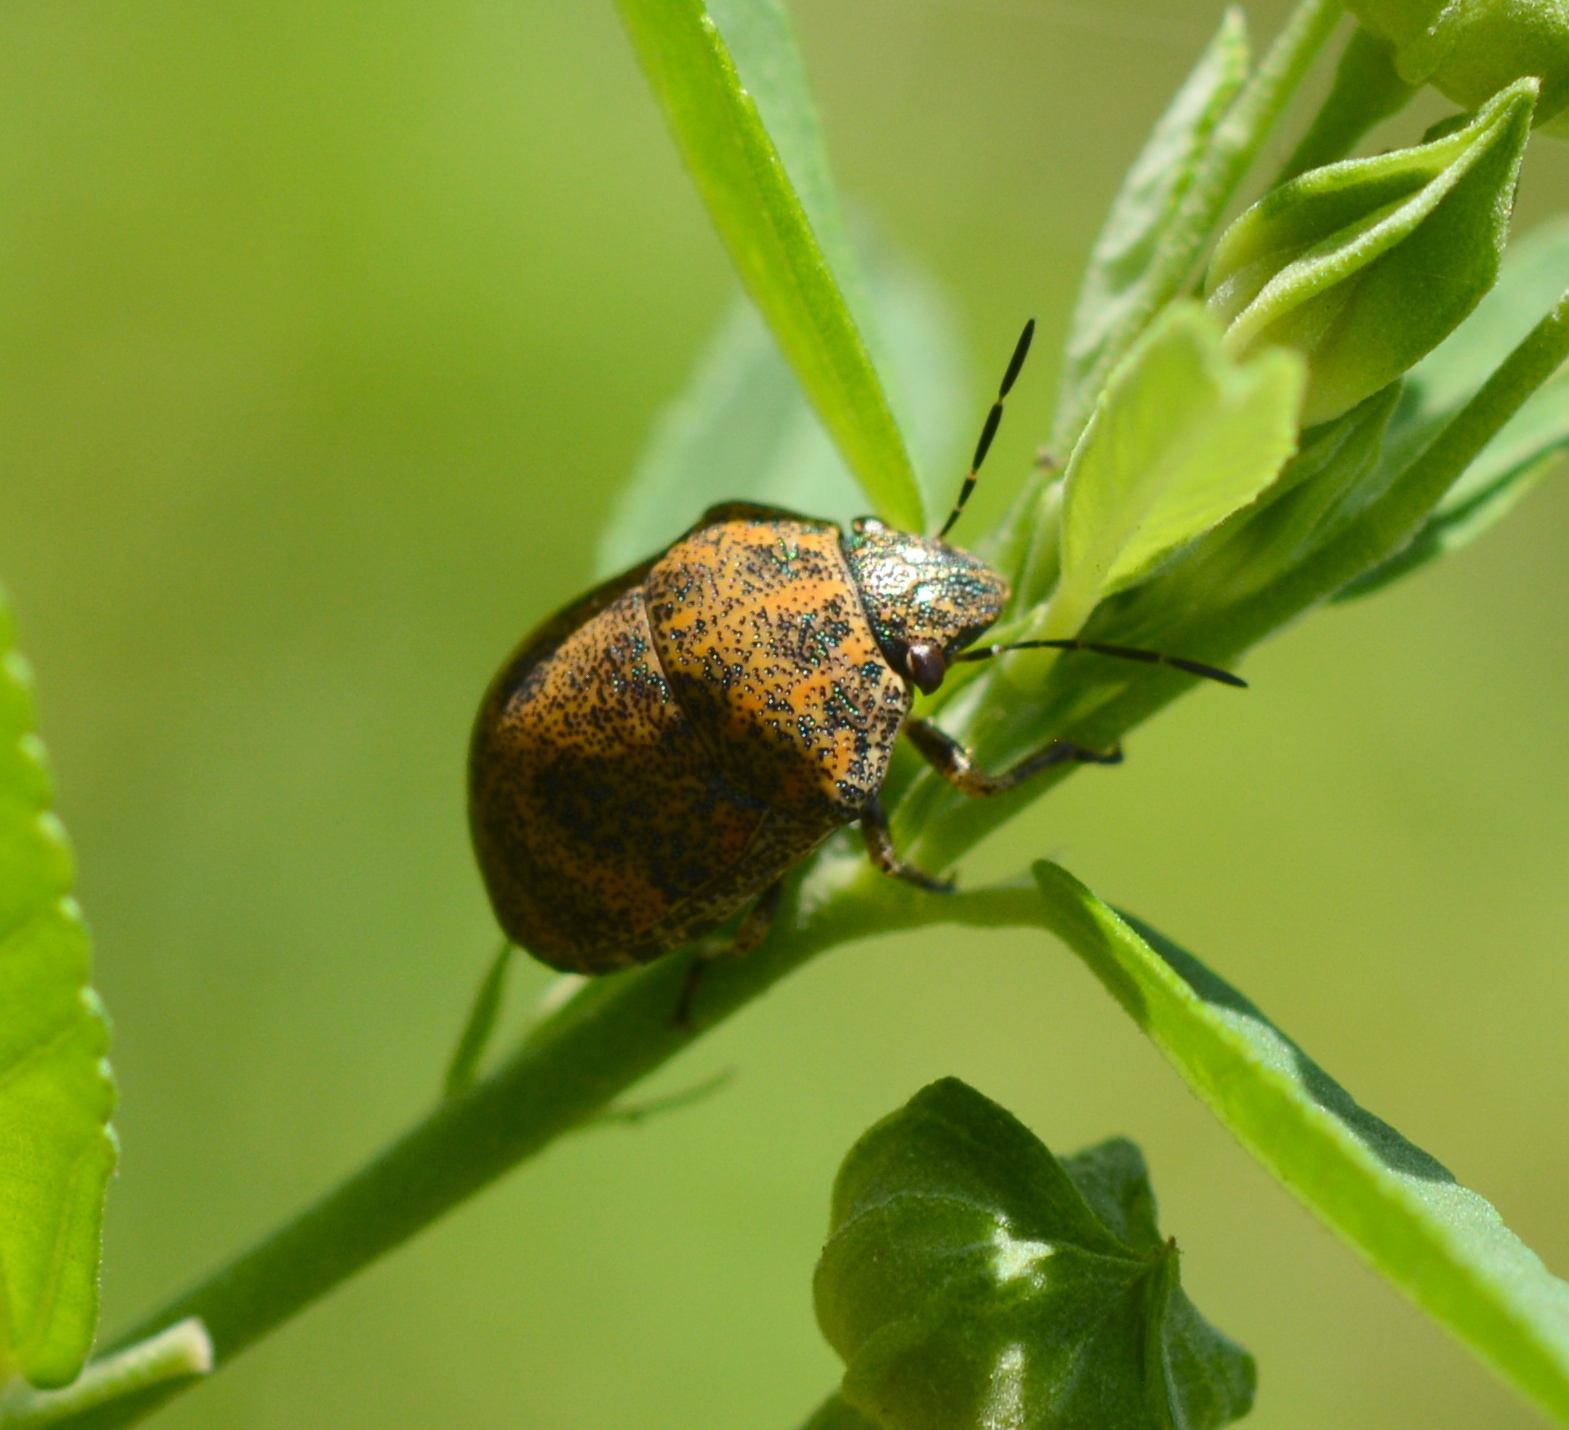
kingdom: Animalia
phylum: Arthropoda
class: Insecta
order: Hemiptera
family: Scutelleridae
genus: Orsilochides
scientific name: Orsilochides
